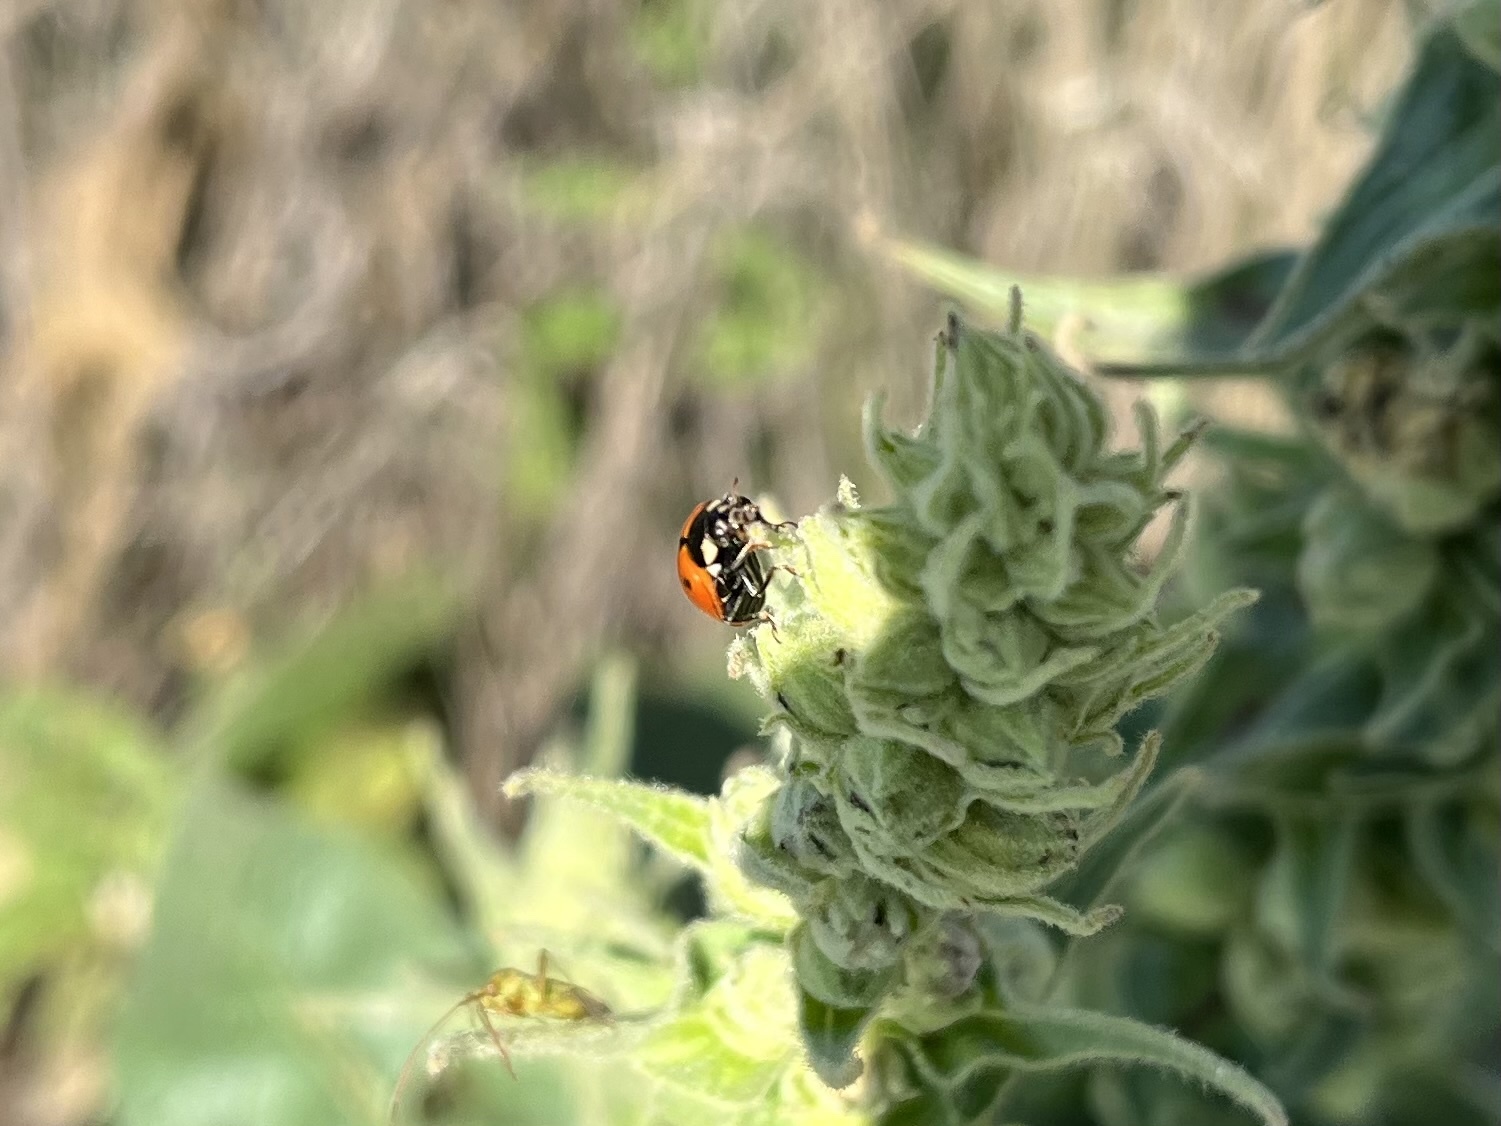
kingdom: Animalia
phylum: Arthropoda
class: Insecta
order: Coleoptera
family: Coccinellidae
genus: Ceratomegilla
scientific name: Ceratomegilla undecimnotata
